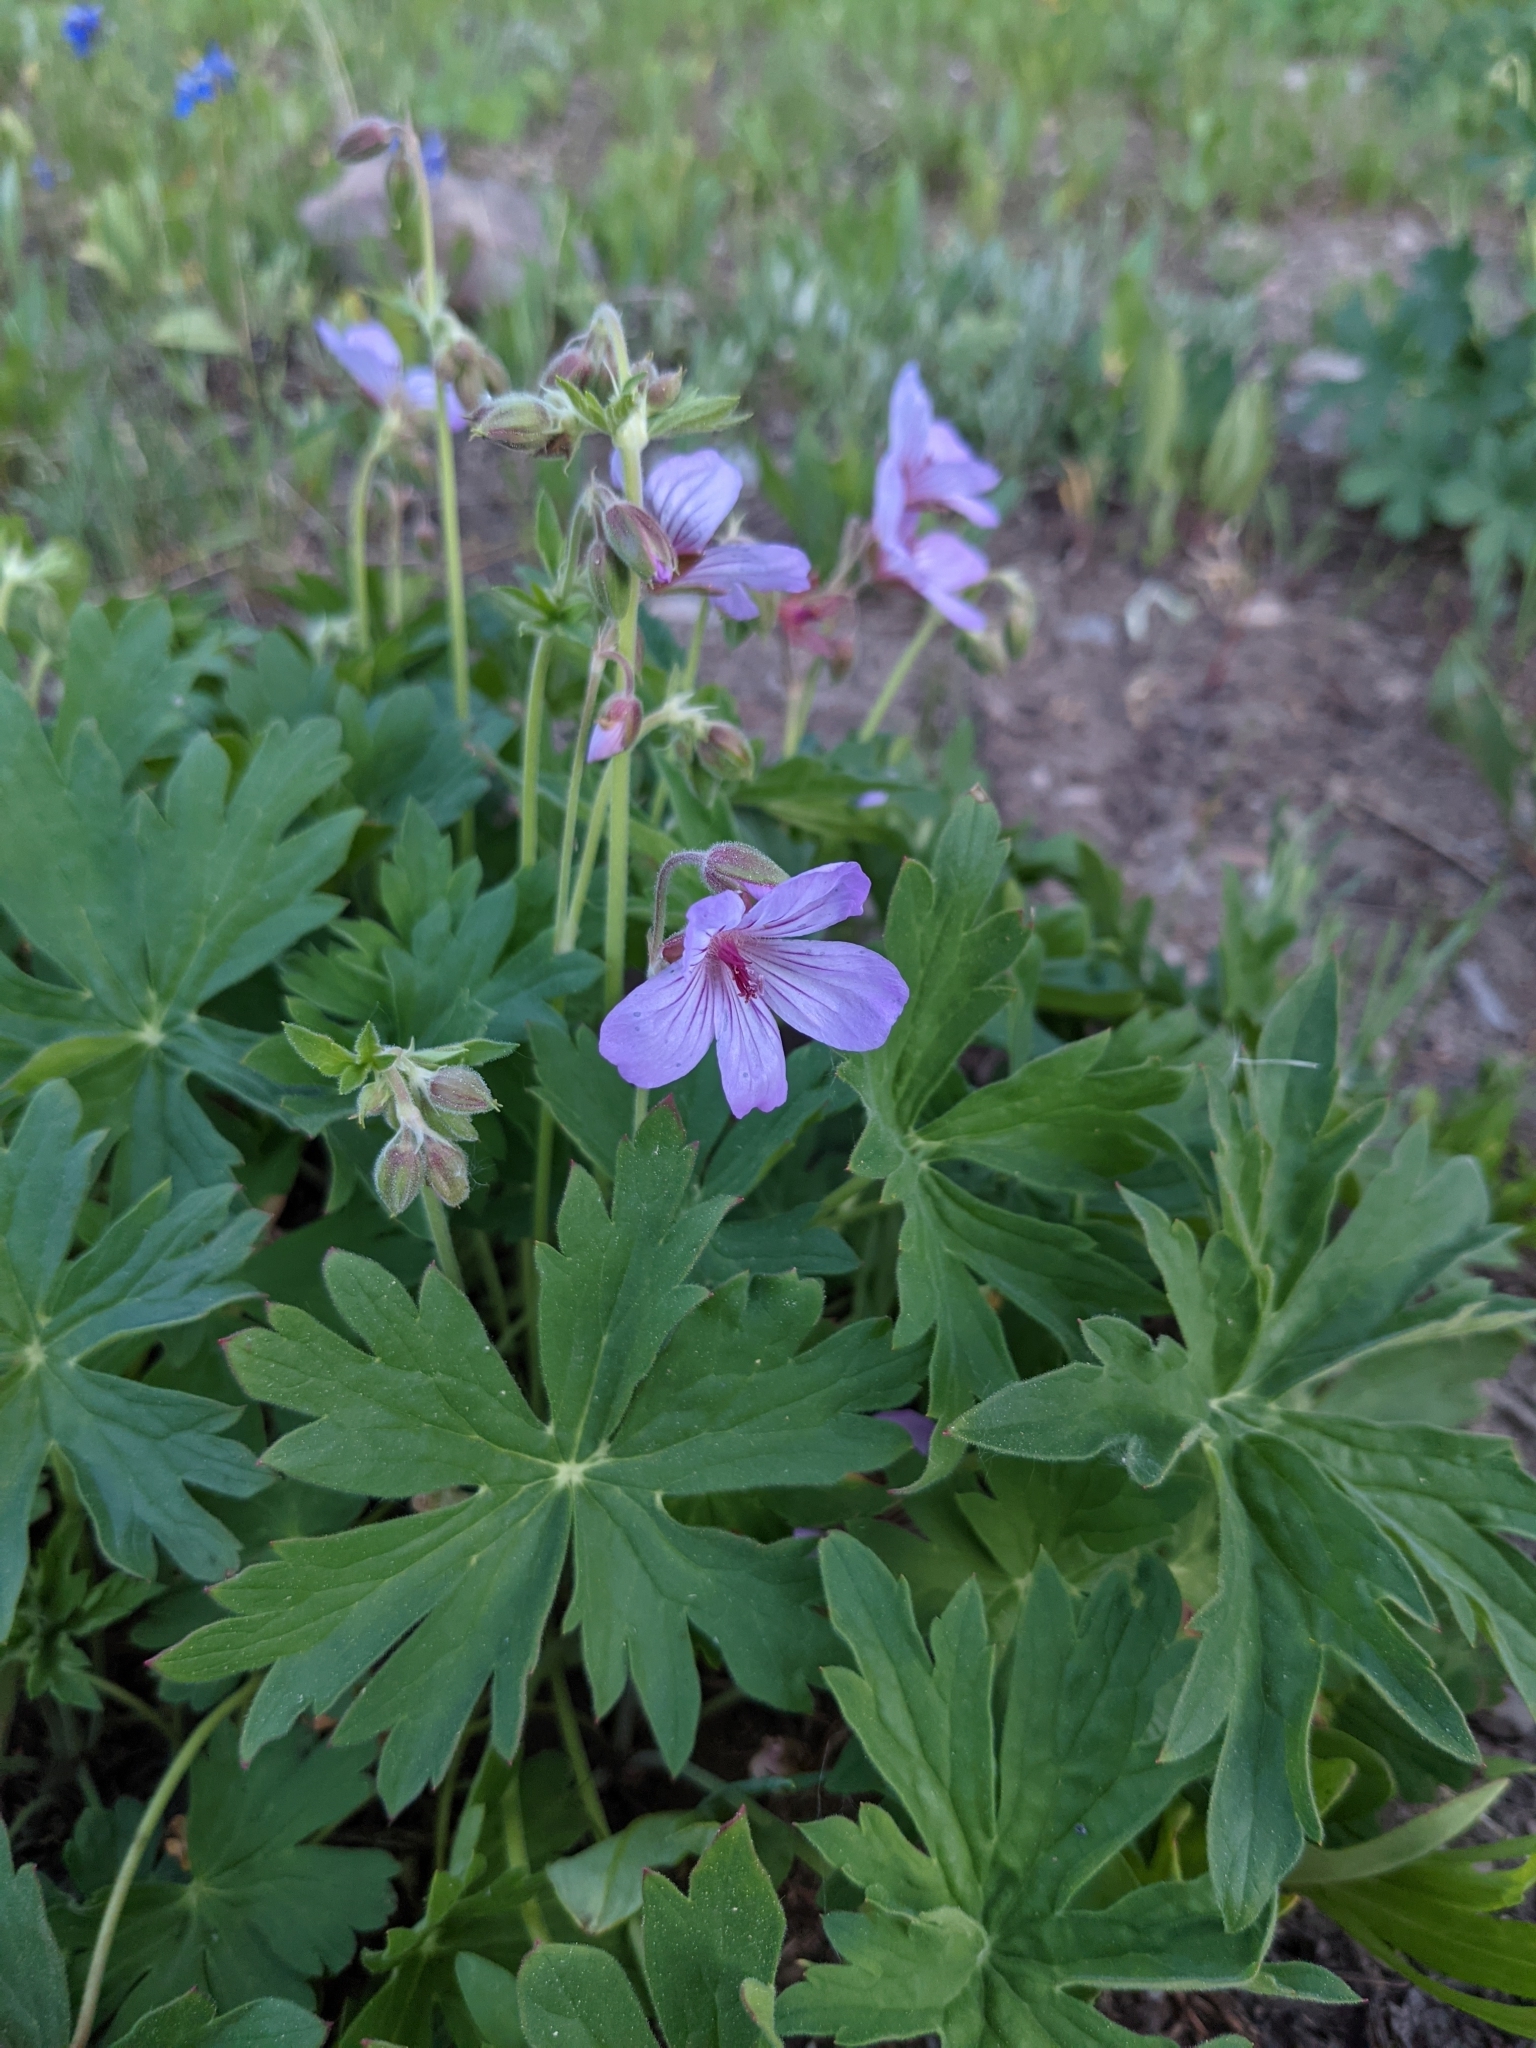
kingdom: Plantae
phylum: Tracheophyta
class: Magnoliopsida
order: Geraniales
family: Geraniaceae
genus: Geranium
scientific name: Geranium viscosissimum
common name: Purple geranium
